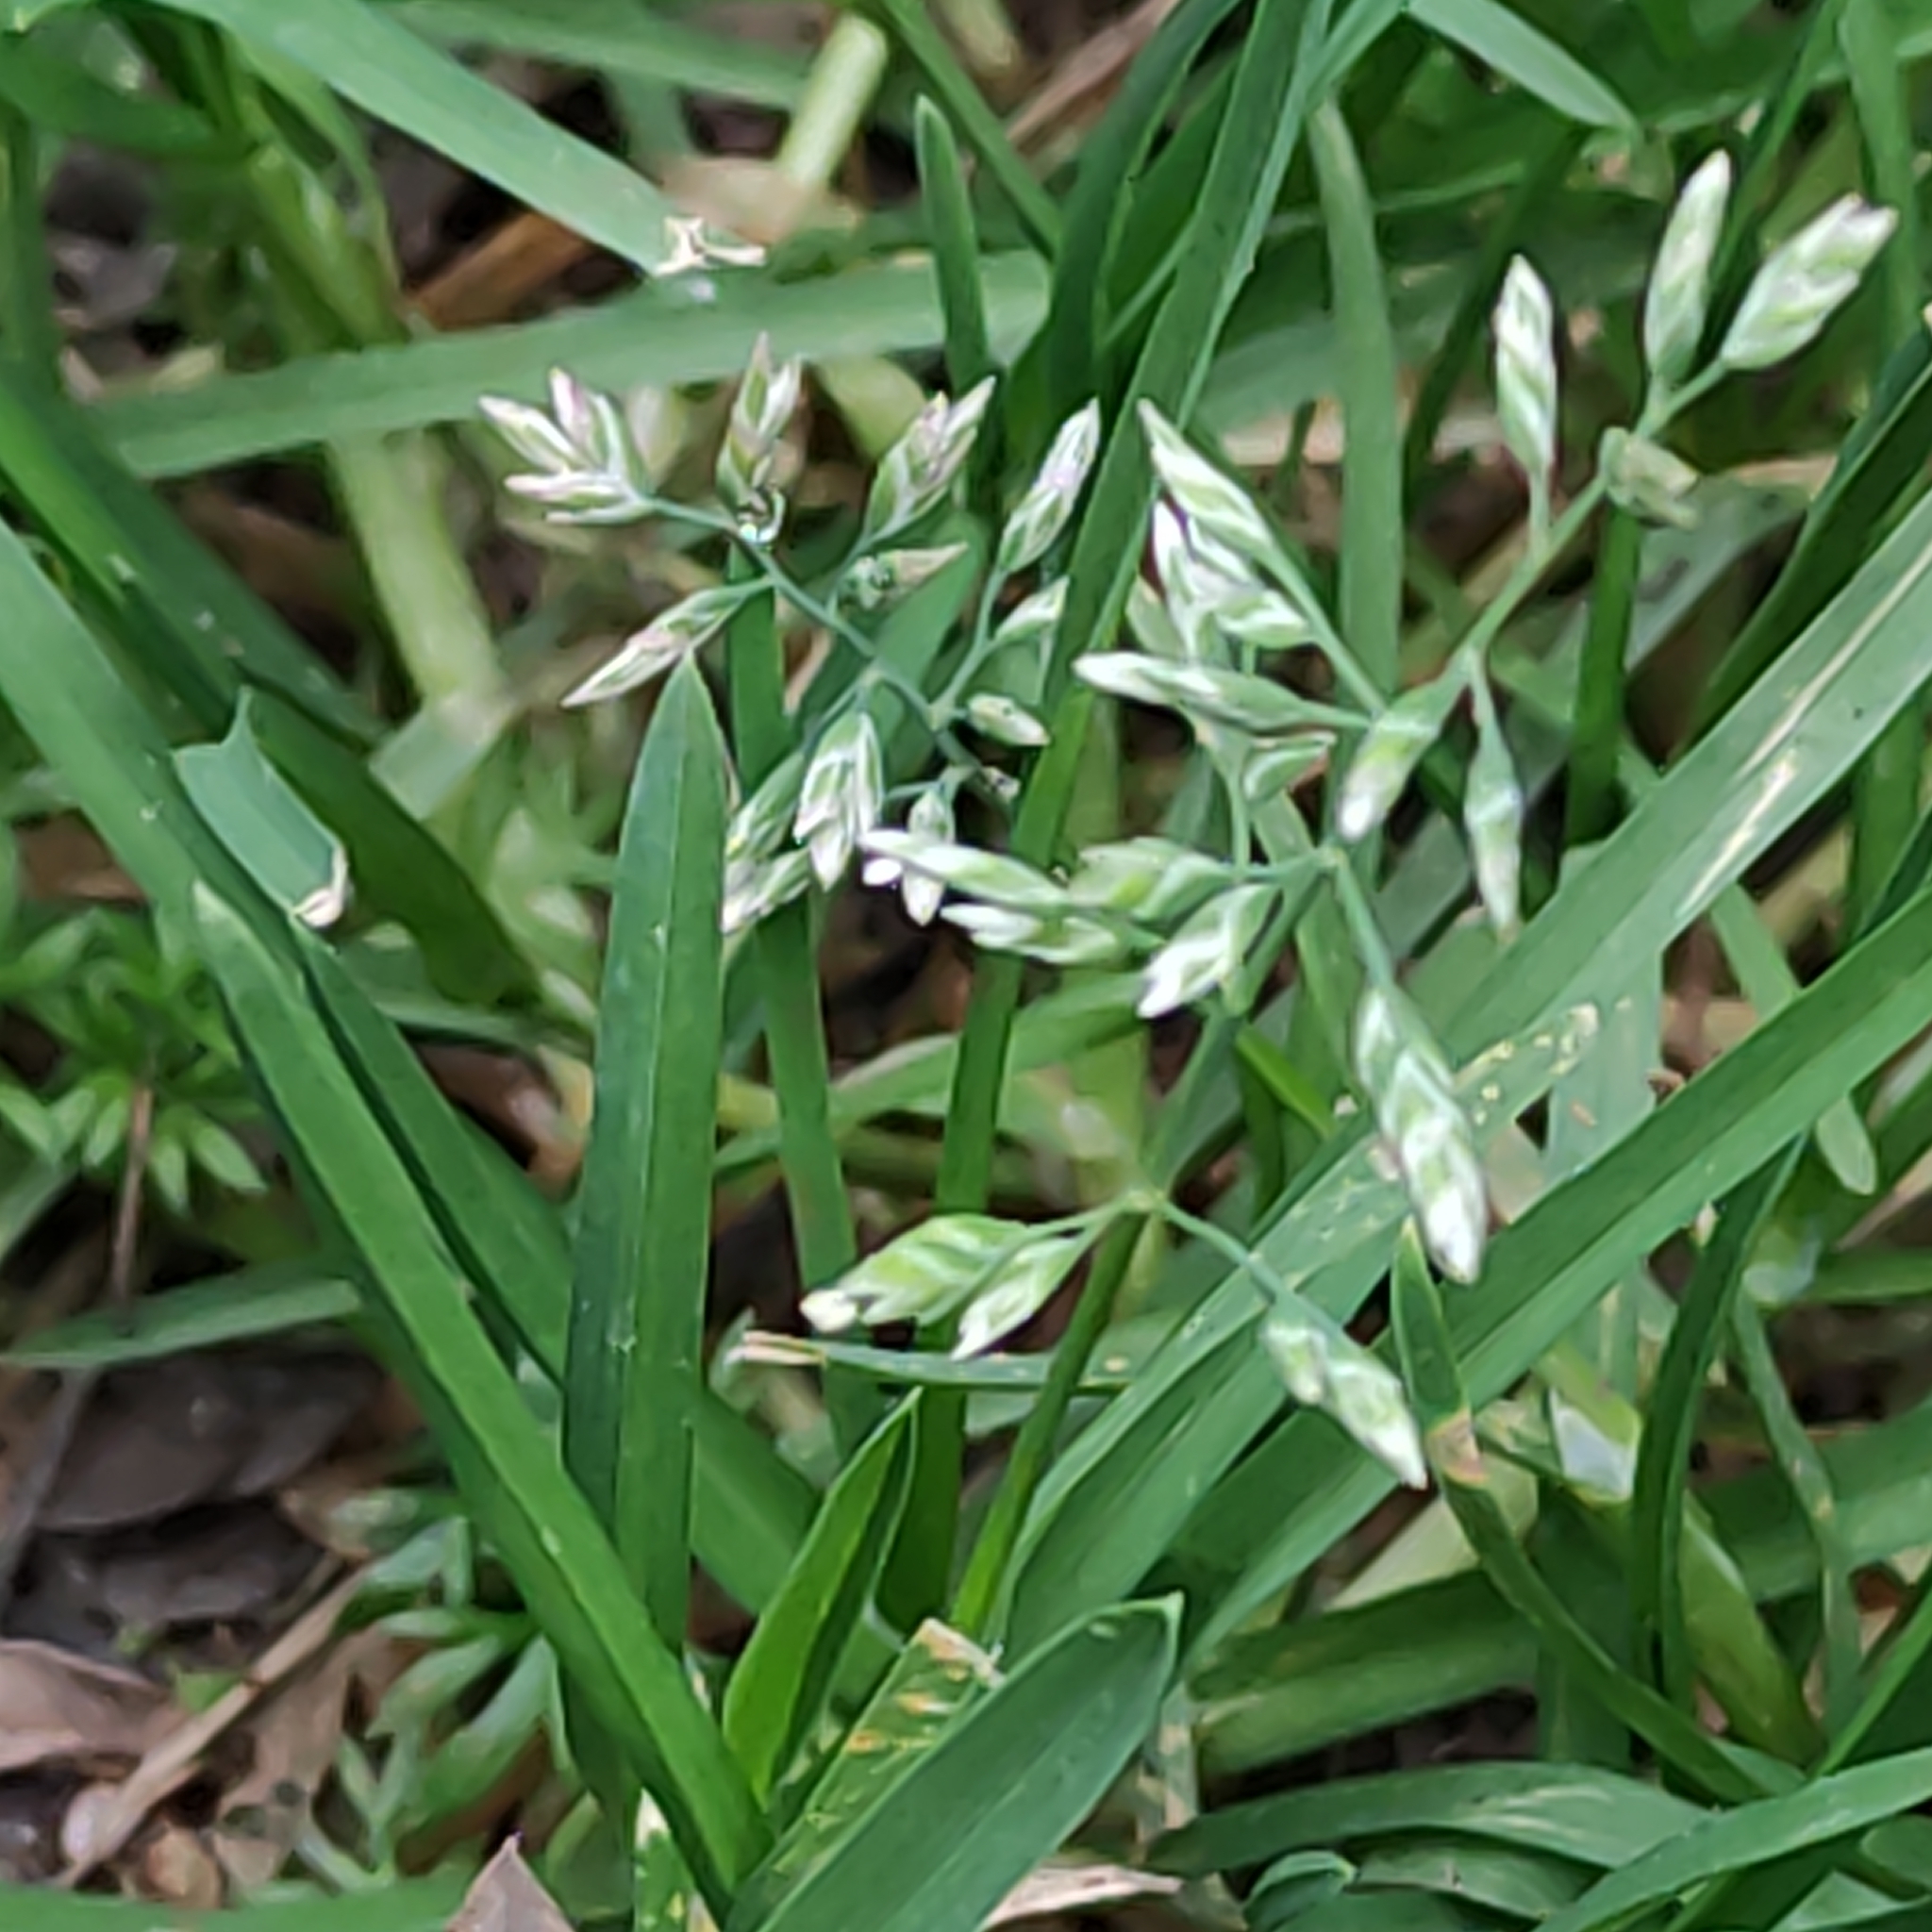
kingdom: Plantae
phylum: Tracheophyta
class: Liliopsida
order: Poales
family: Poaceae
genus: Poa
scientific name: Poa annua
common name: Annual bluegrass
